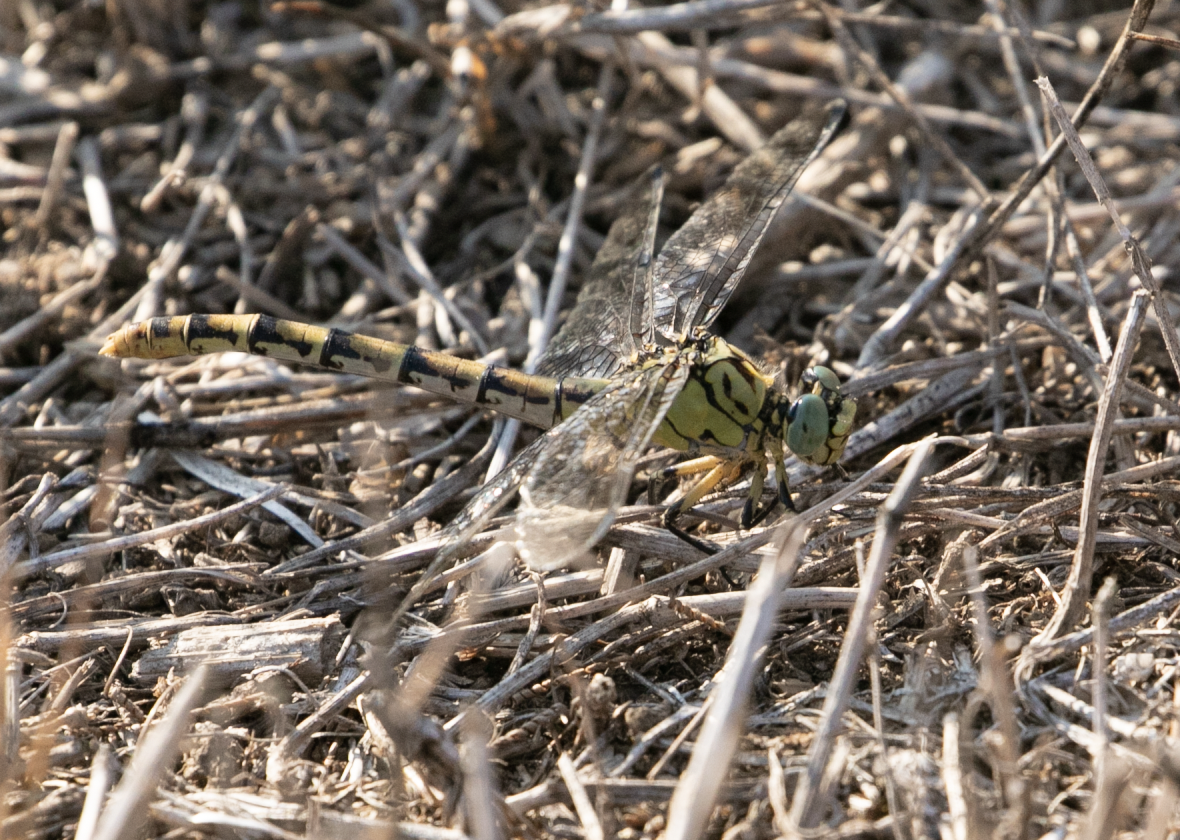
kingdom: Animalia
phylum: Arthropoda
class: Insecta
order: Odonata
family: Gomphidae
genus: Onychogomphus
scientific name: Onychogomphus forcipatus
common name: Small pincertail
